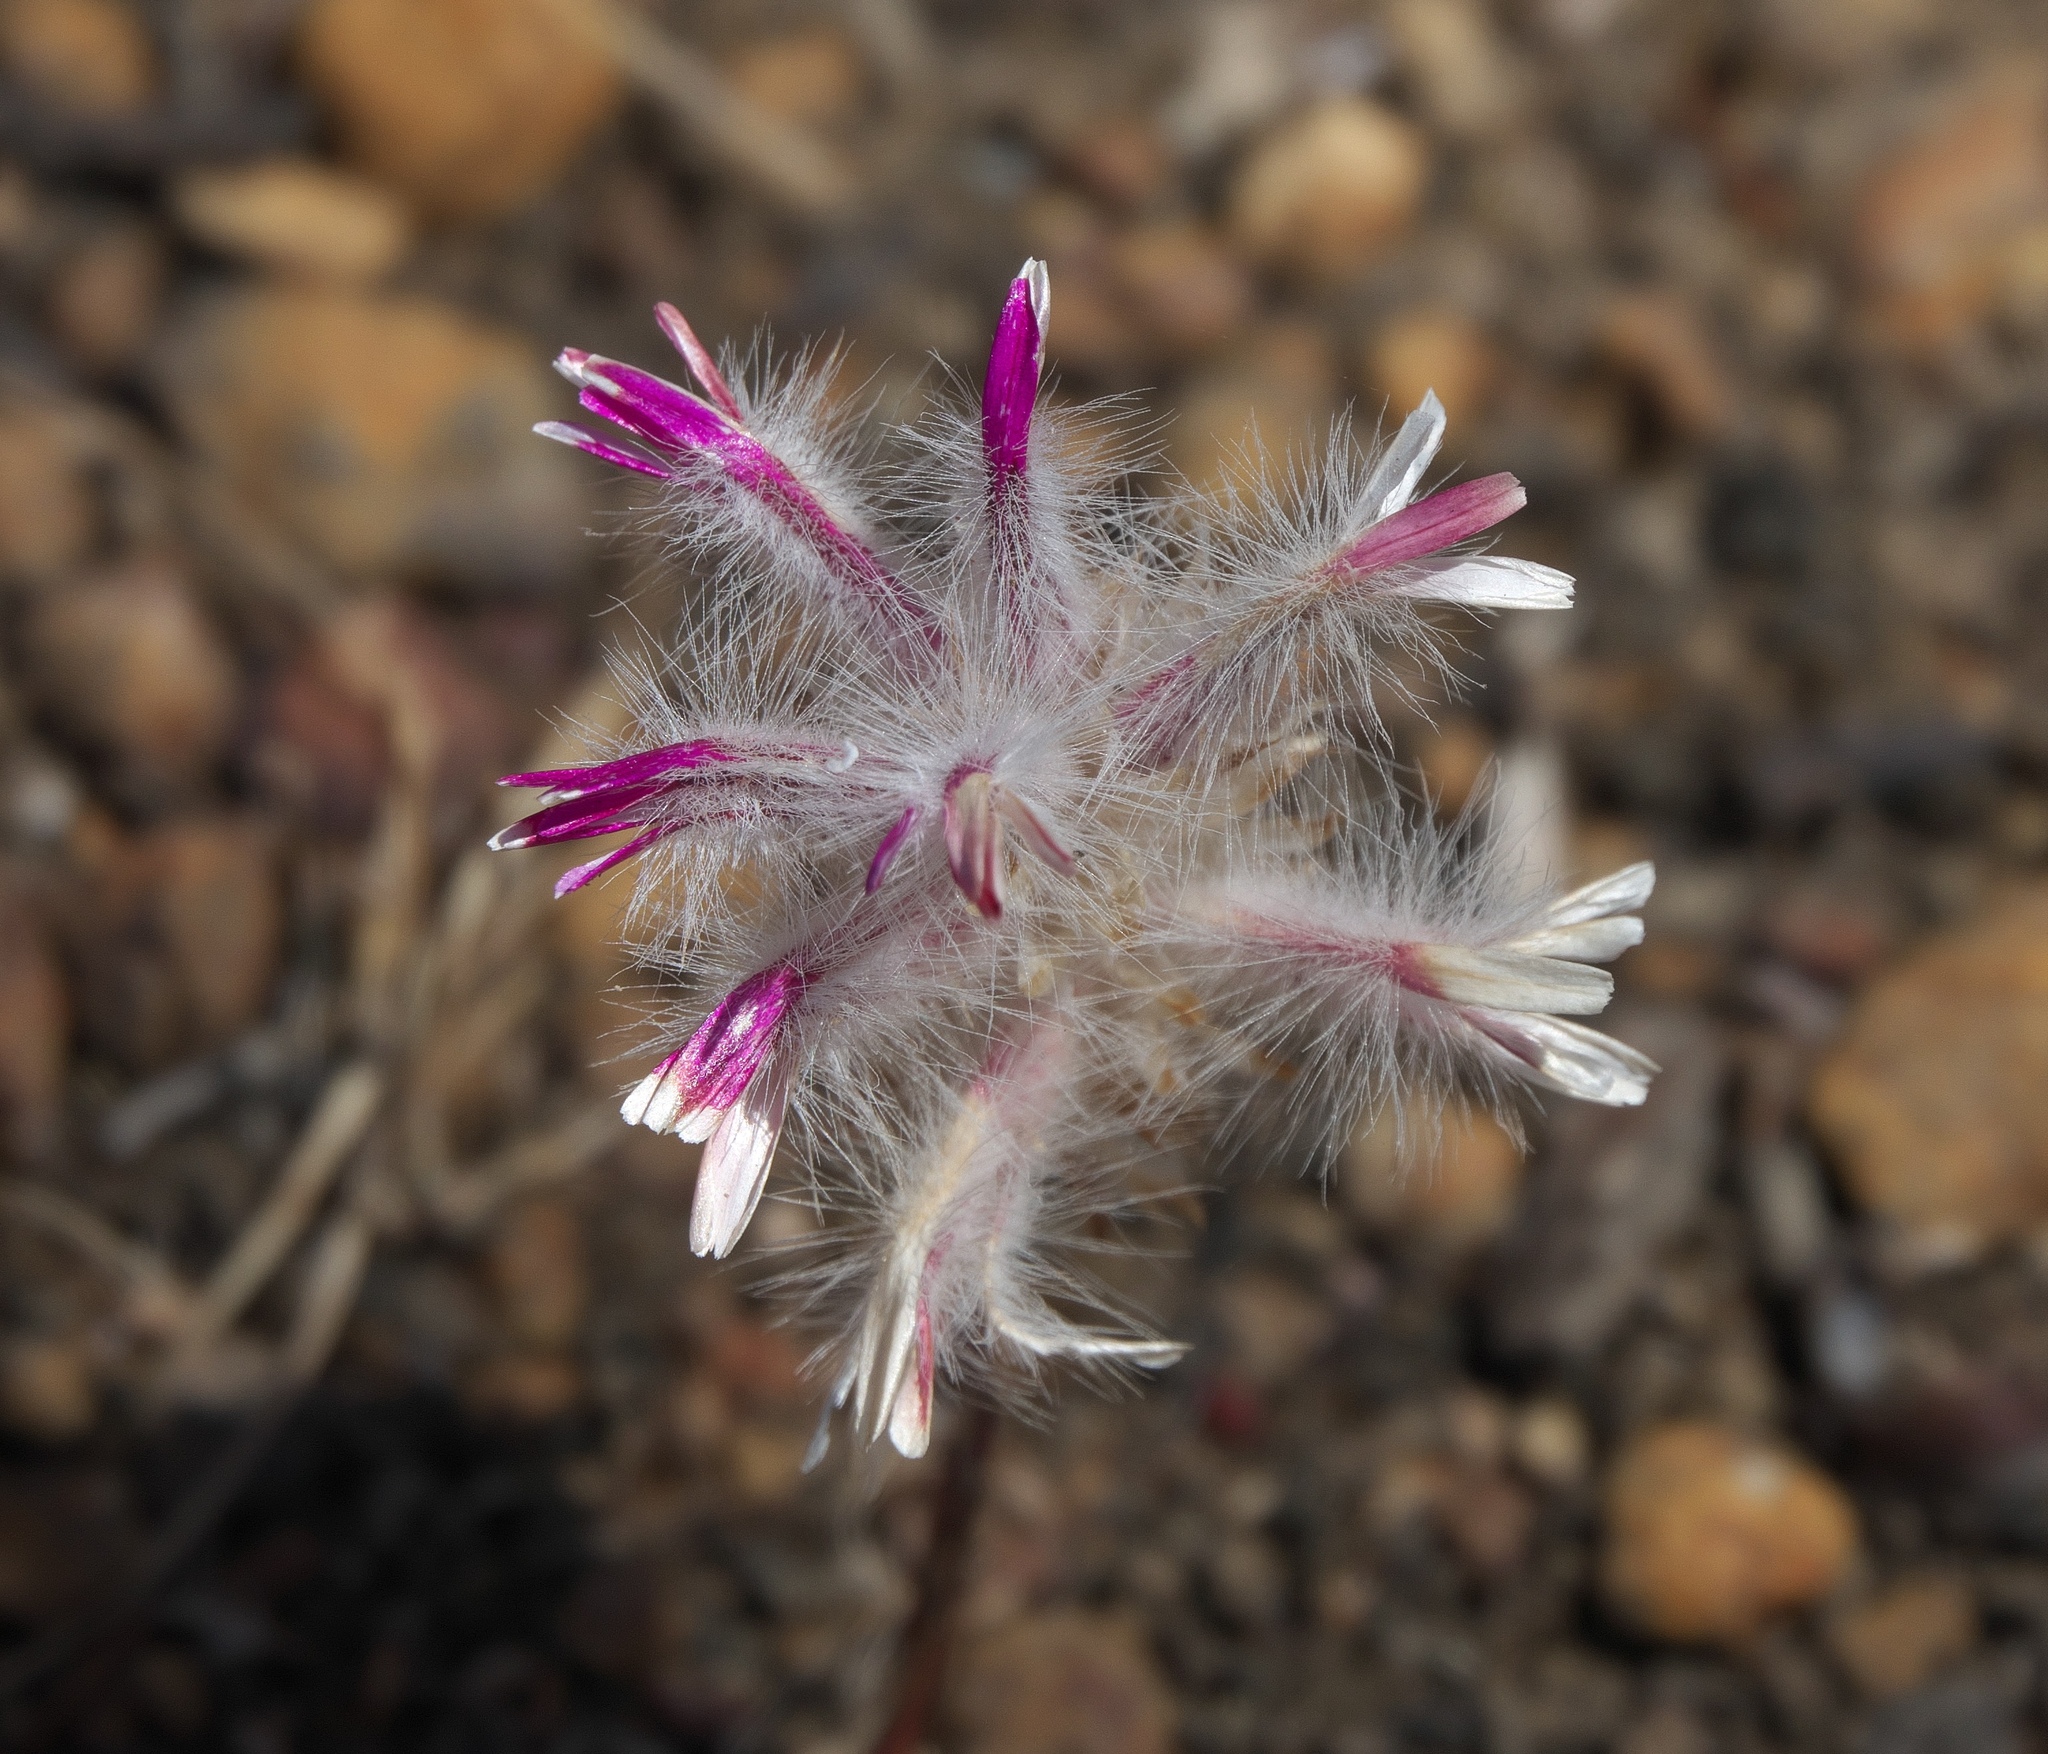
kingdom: Plantae
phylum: Tracheophyta
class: Magnoliopsida
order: Caryophyllales
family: Amaranthaceae
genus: Ptilotus
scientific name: Ptilotus manglesii
